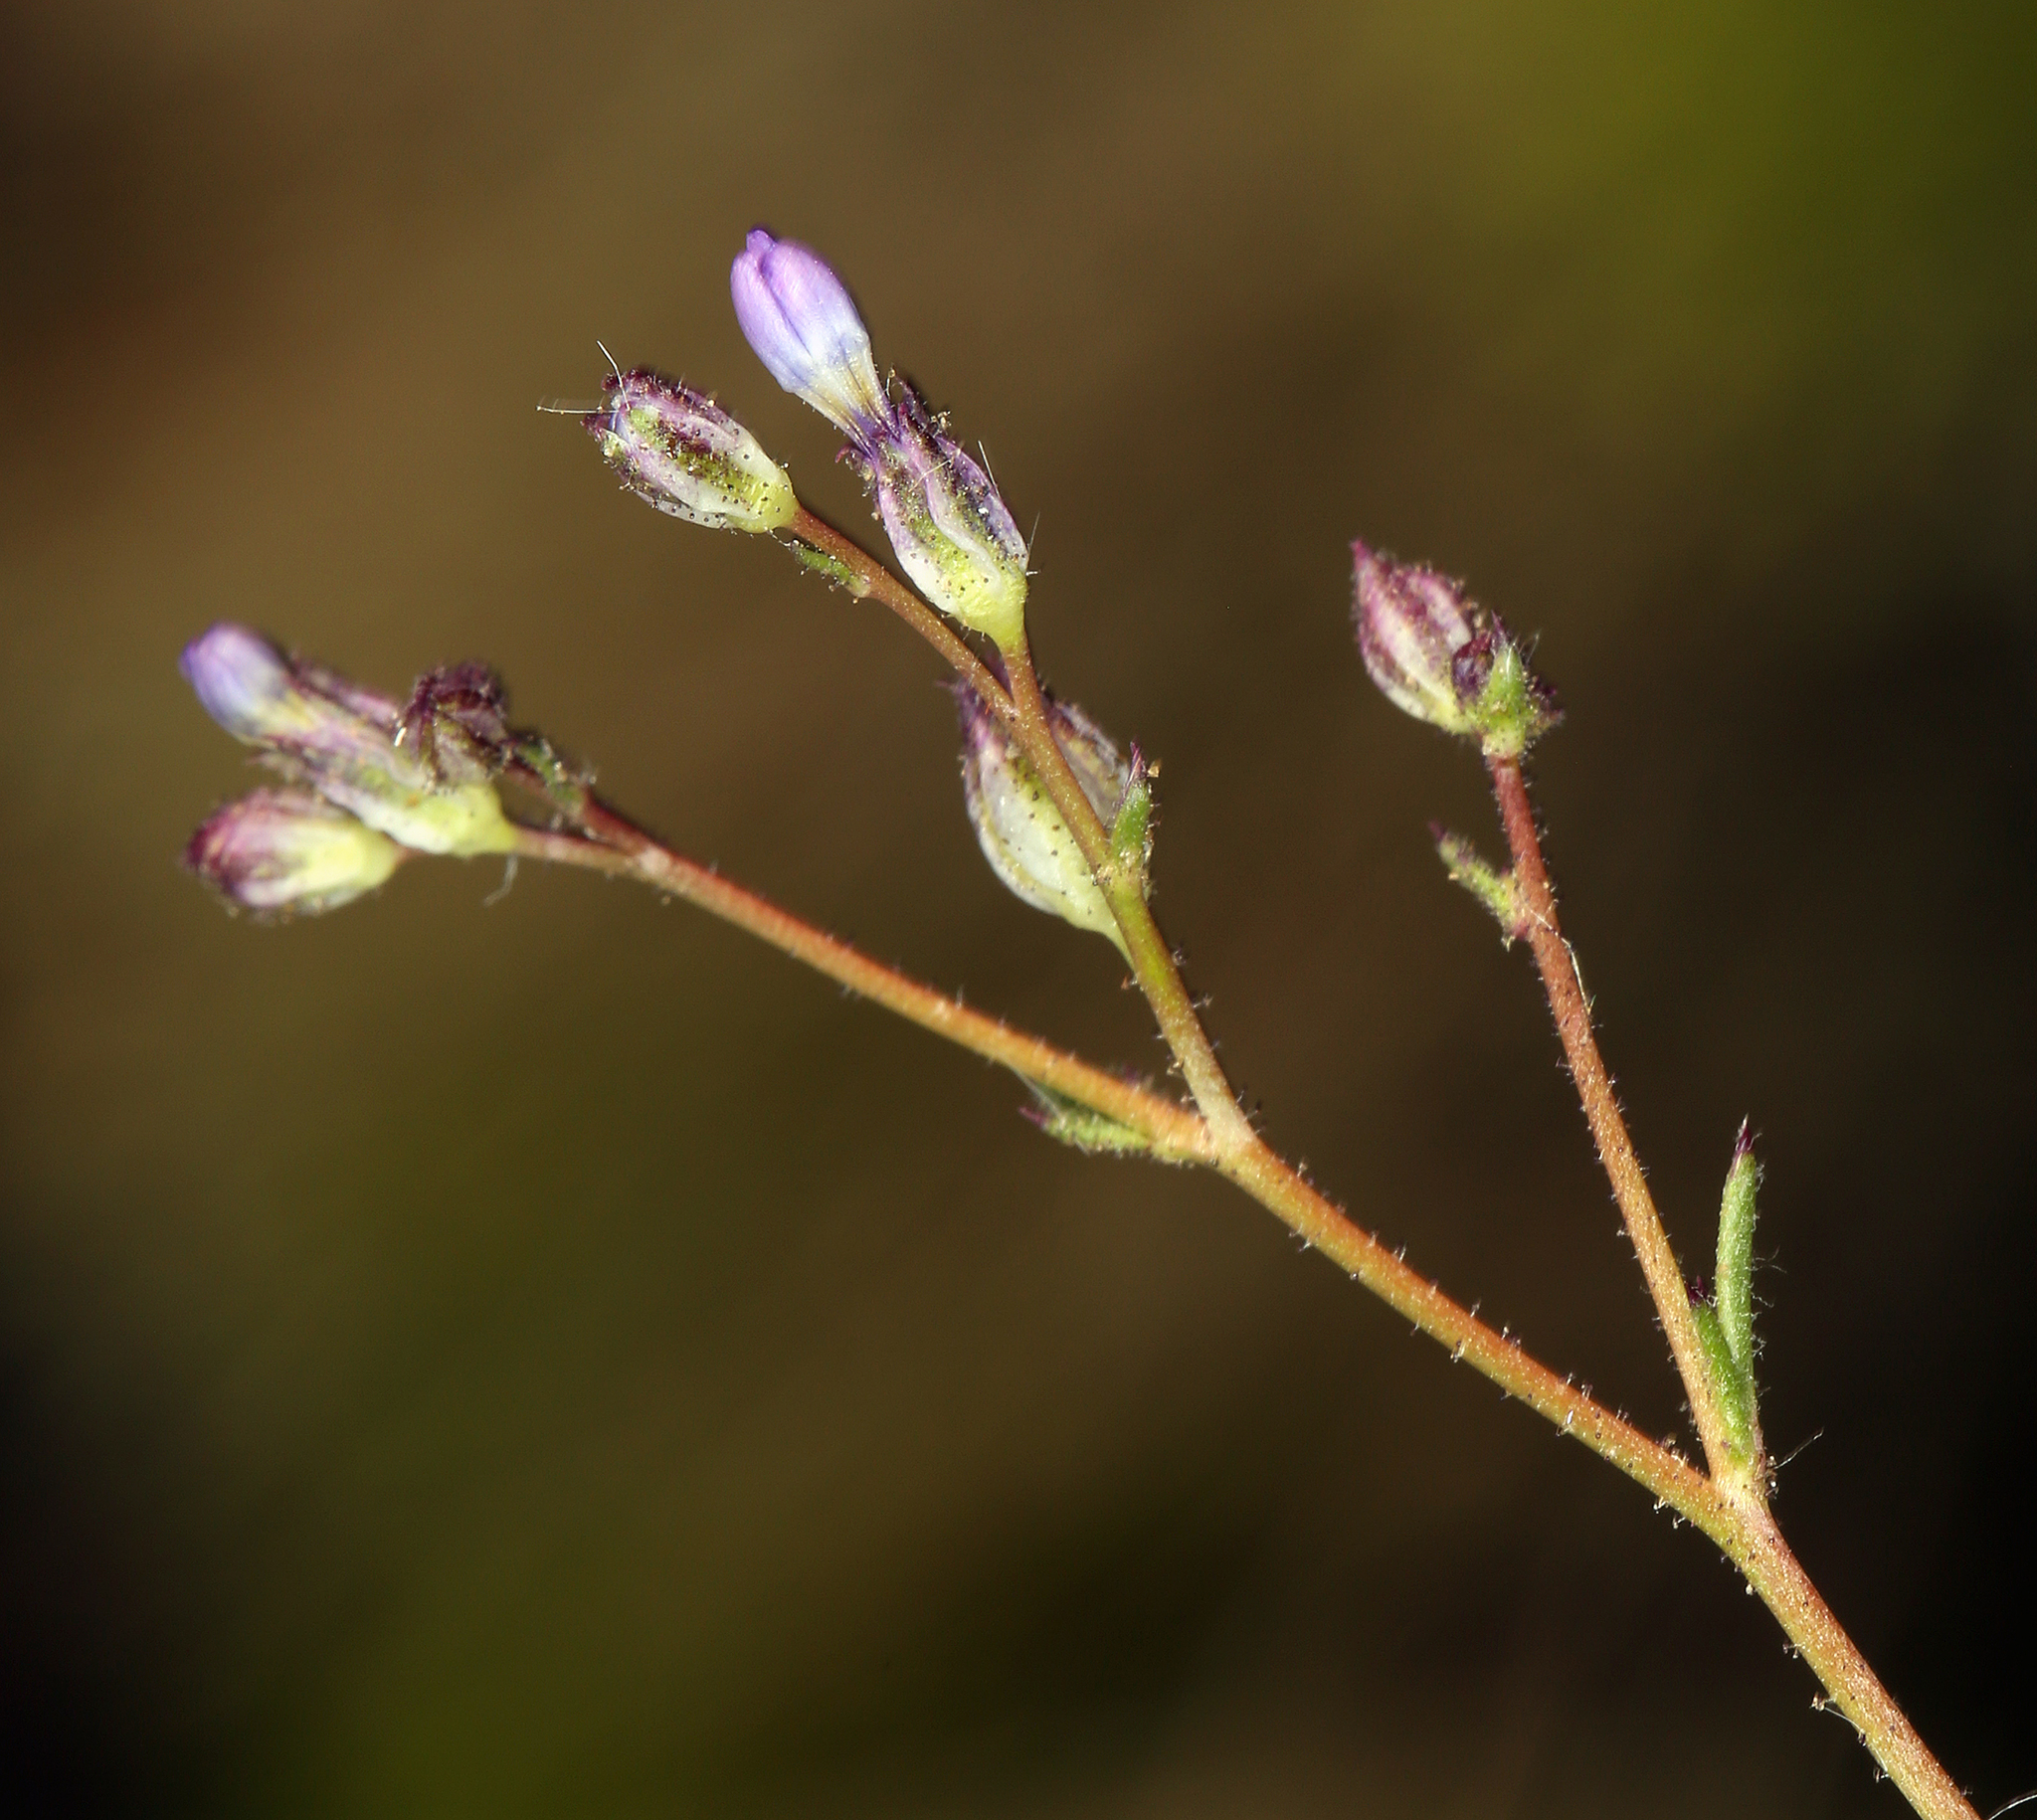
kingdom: Plantae
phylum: Tracheophyta
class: Magnoliopsida
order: Ericales
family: Polemoniaceae
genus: Gilia
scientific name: Gilia transmontana
